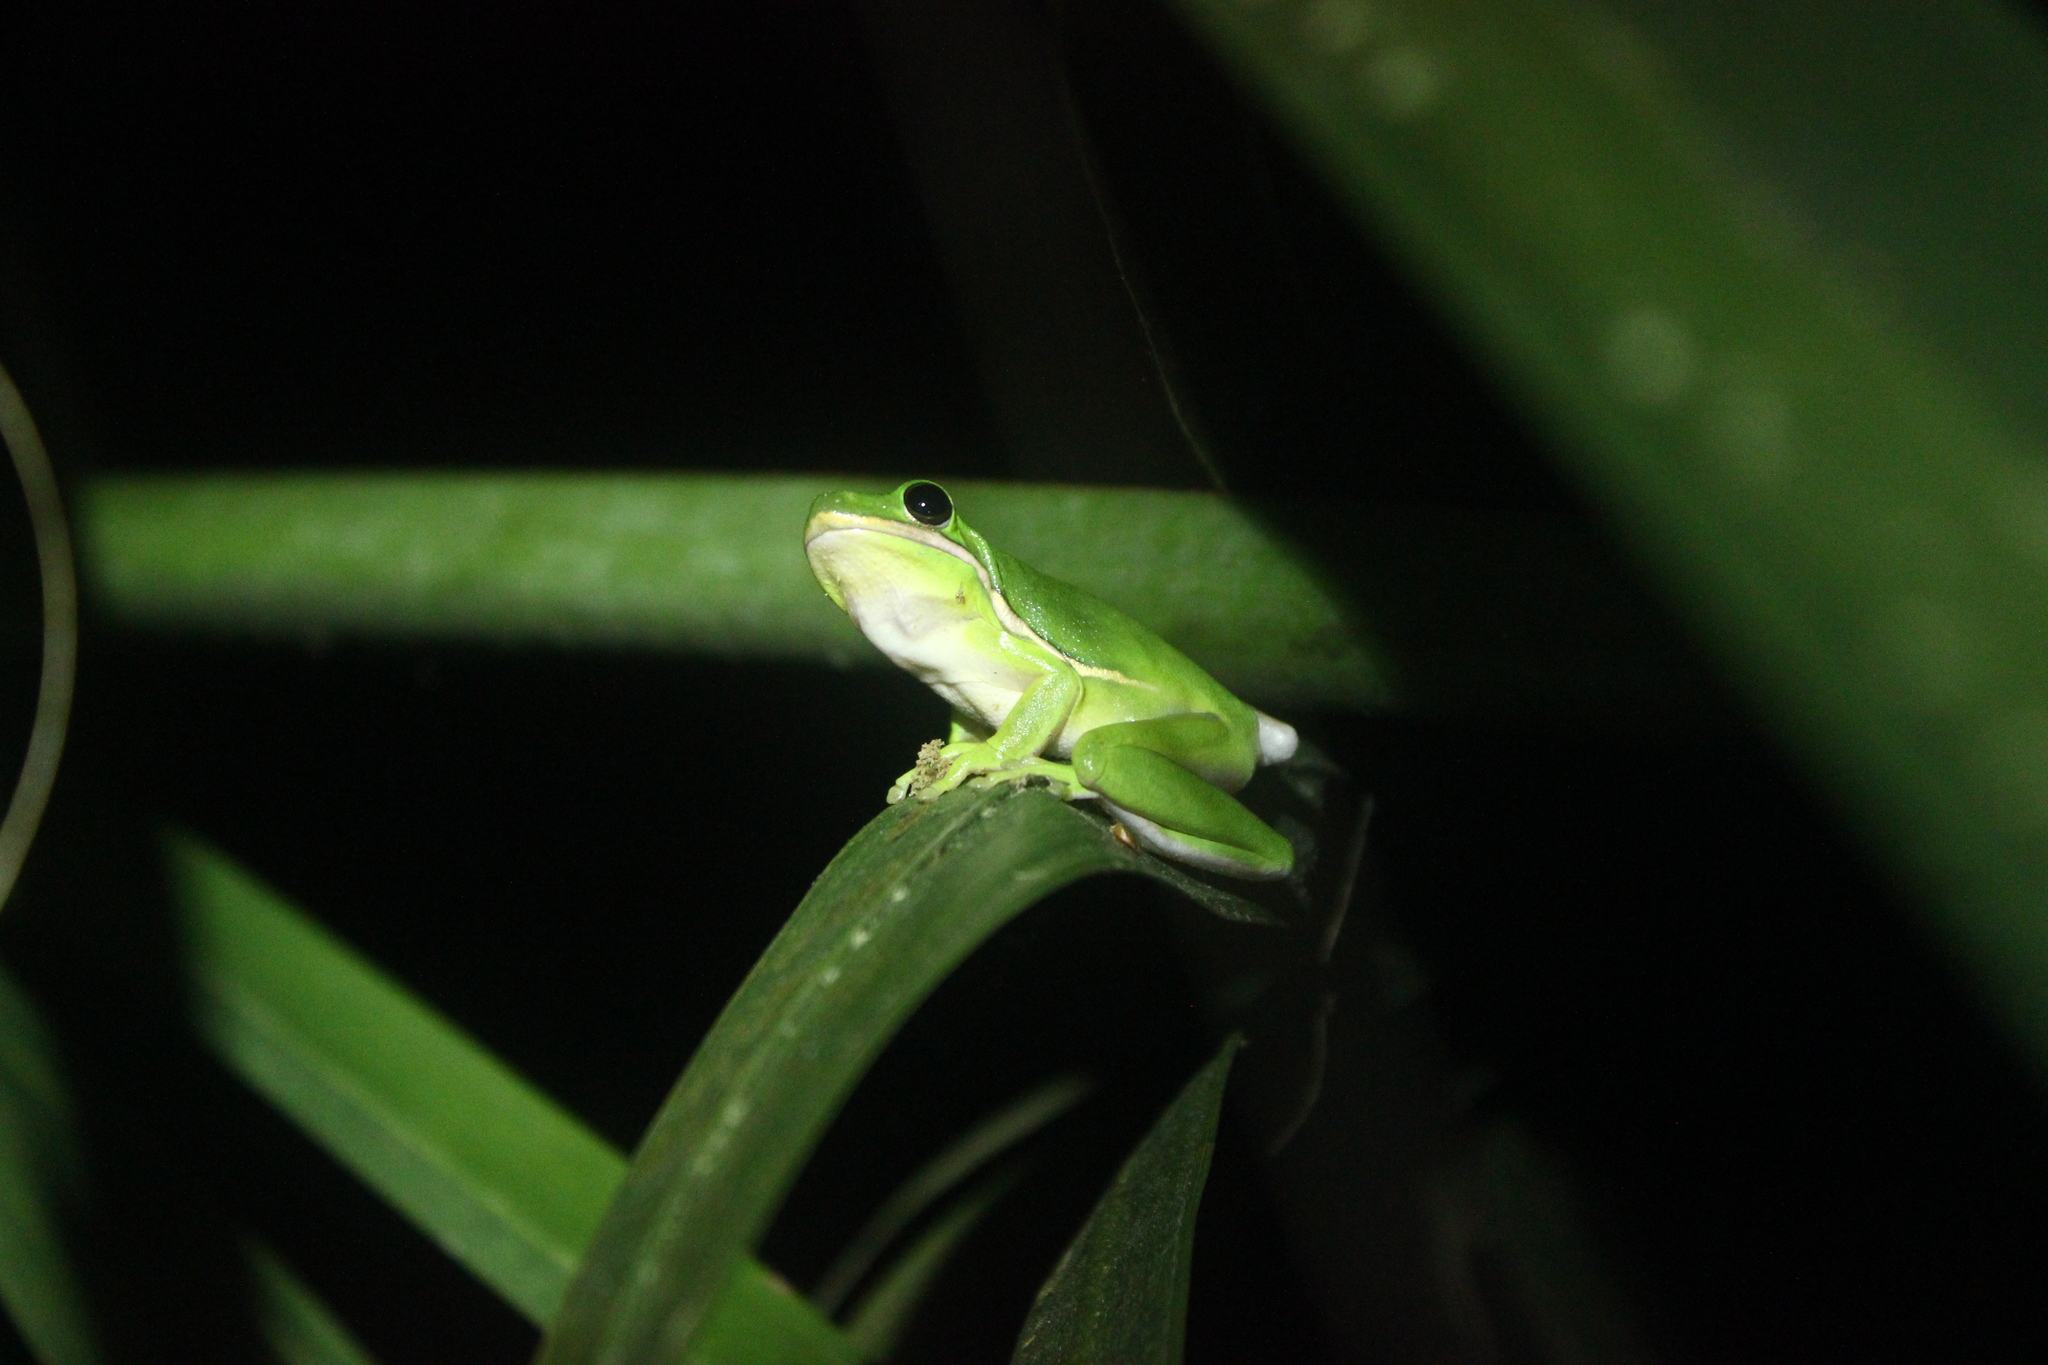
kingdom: Animalia
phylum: Chordata
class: Amphibia
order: Anura
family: Hylidae
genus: Dryophytes
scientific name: Dryophytes cinereus
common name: Green treefrog
